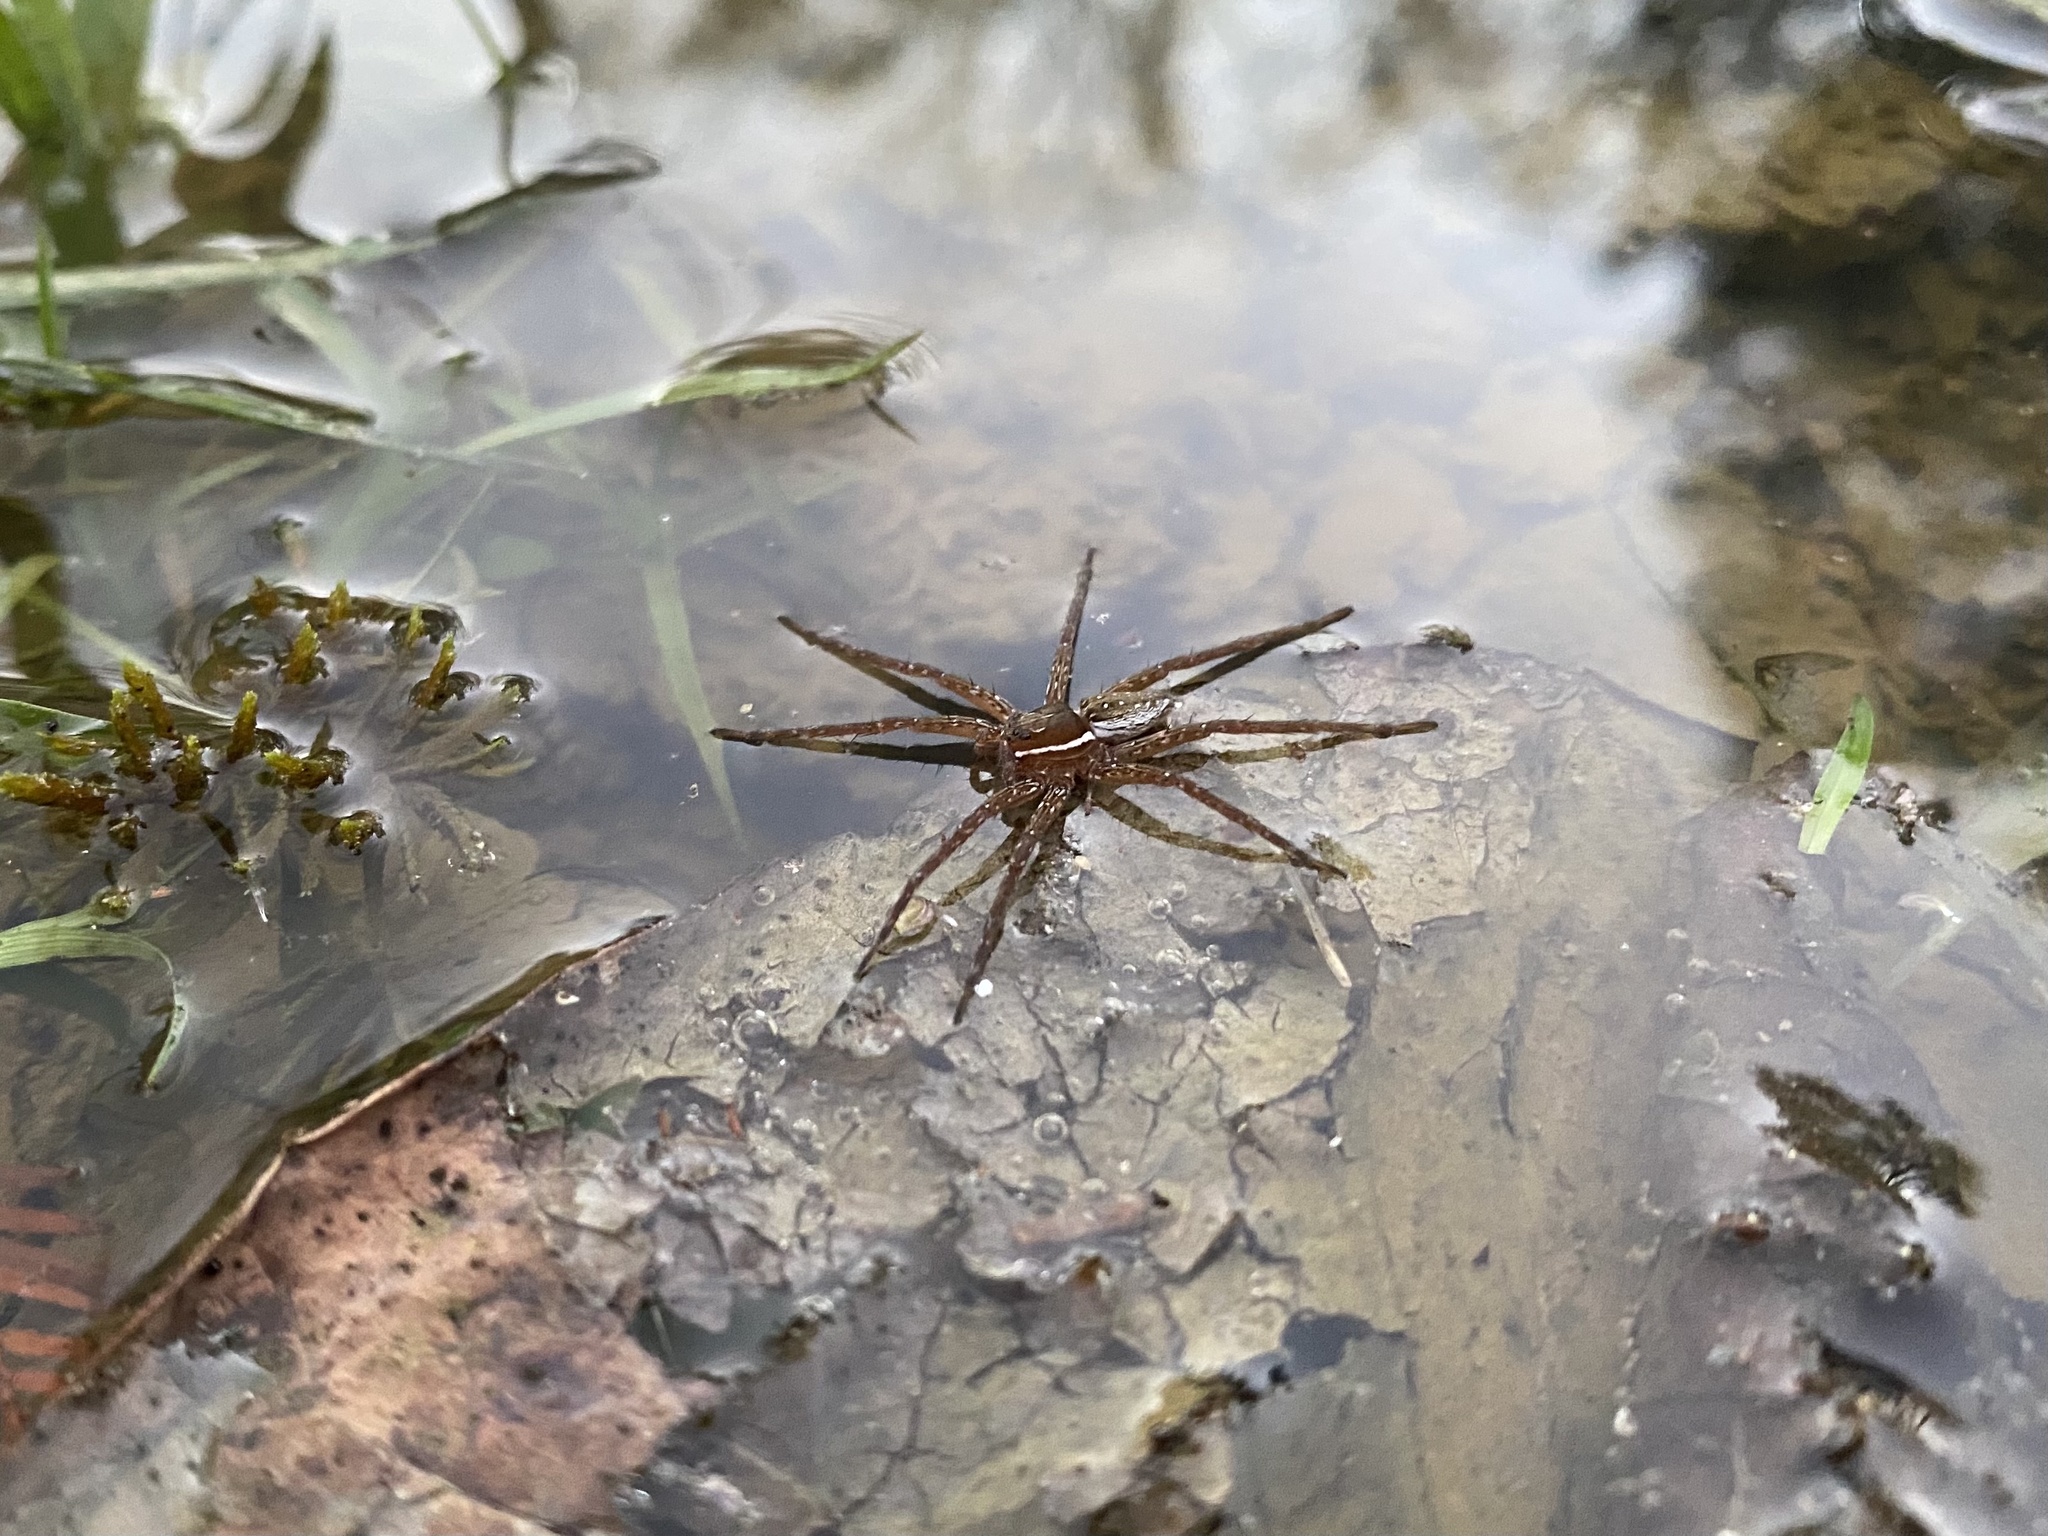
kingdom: Animalia
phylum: Arthropoda
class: Arachnida
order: Araneae
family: Pisauridae
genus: Dolomedes
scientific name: Dolomedes triton
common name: Six-spotted fishing spider
